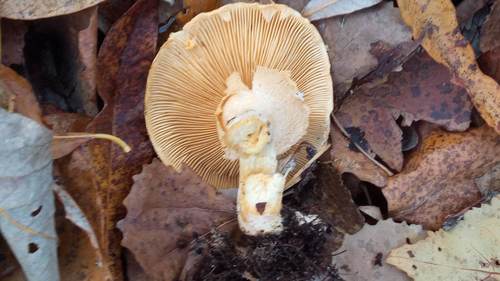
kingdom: Fungi
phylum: Basidiomycota
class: Agaricomycetes
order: Agaricales
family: Tricholomataceae
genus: Phaeolepiota
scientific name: Phaeolepiota aurea
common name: Golden bootleg
